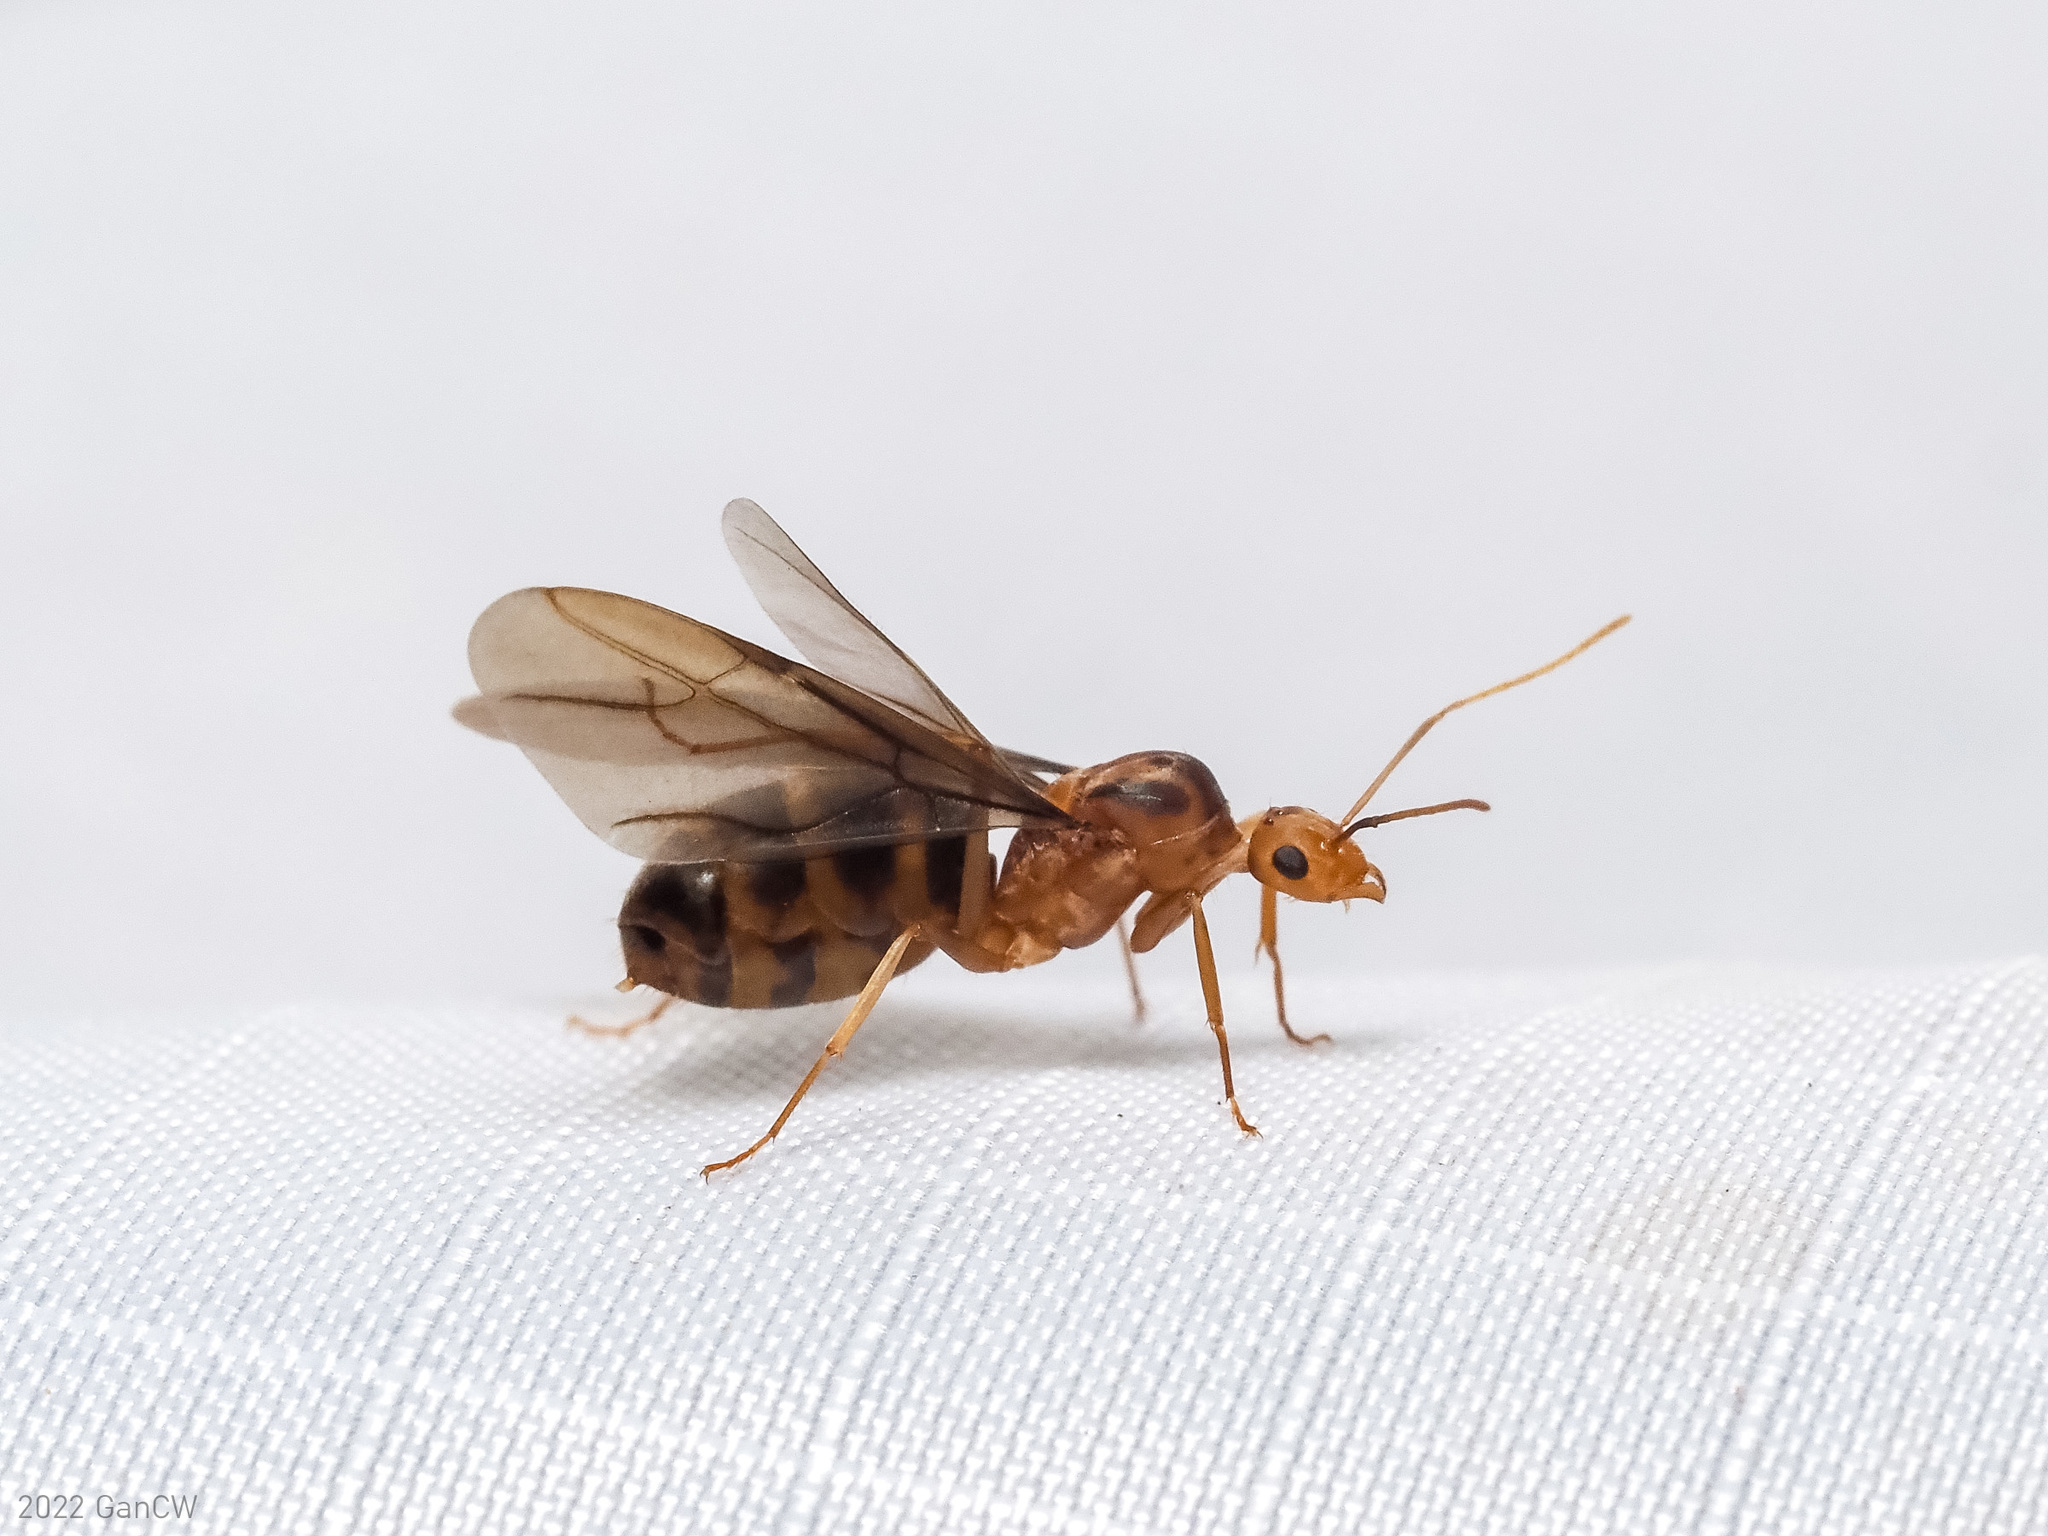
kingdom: Animalia
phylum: Arthropoda
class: Insecta
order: Hymenoptera
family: Formicidae
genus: Anoplolepis
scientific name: Anoplolepis gracilipes
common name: Ant
